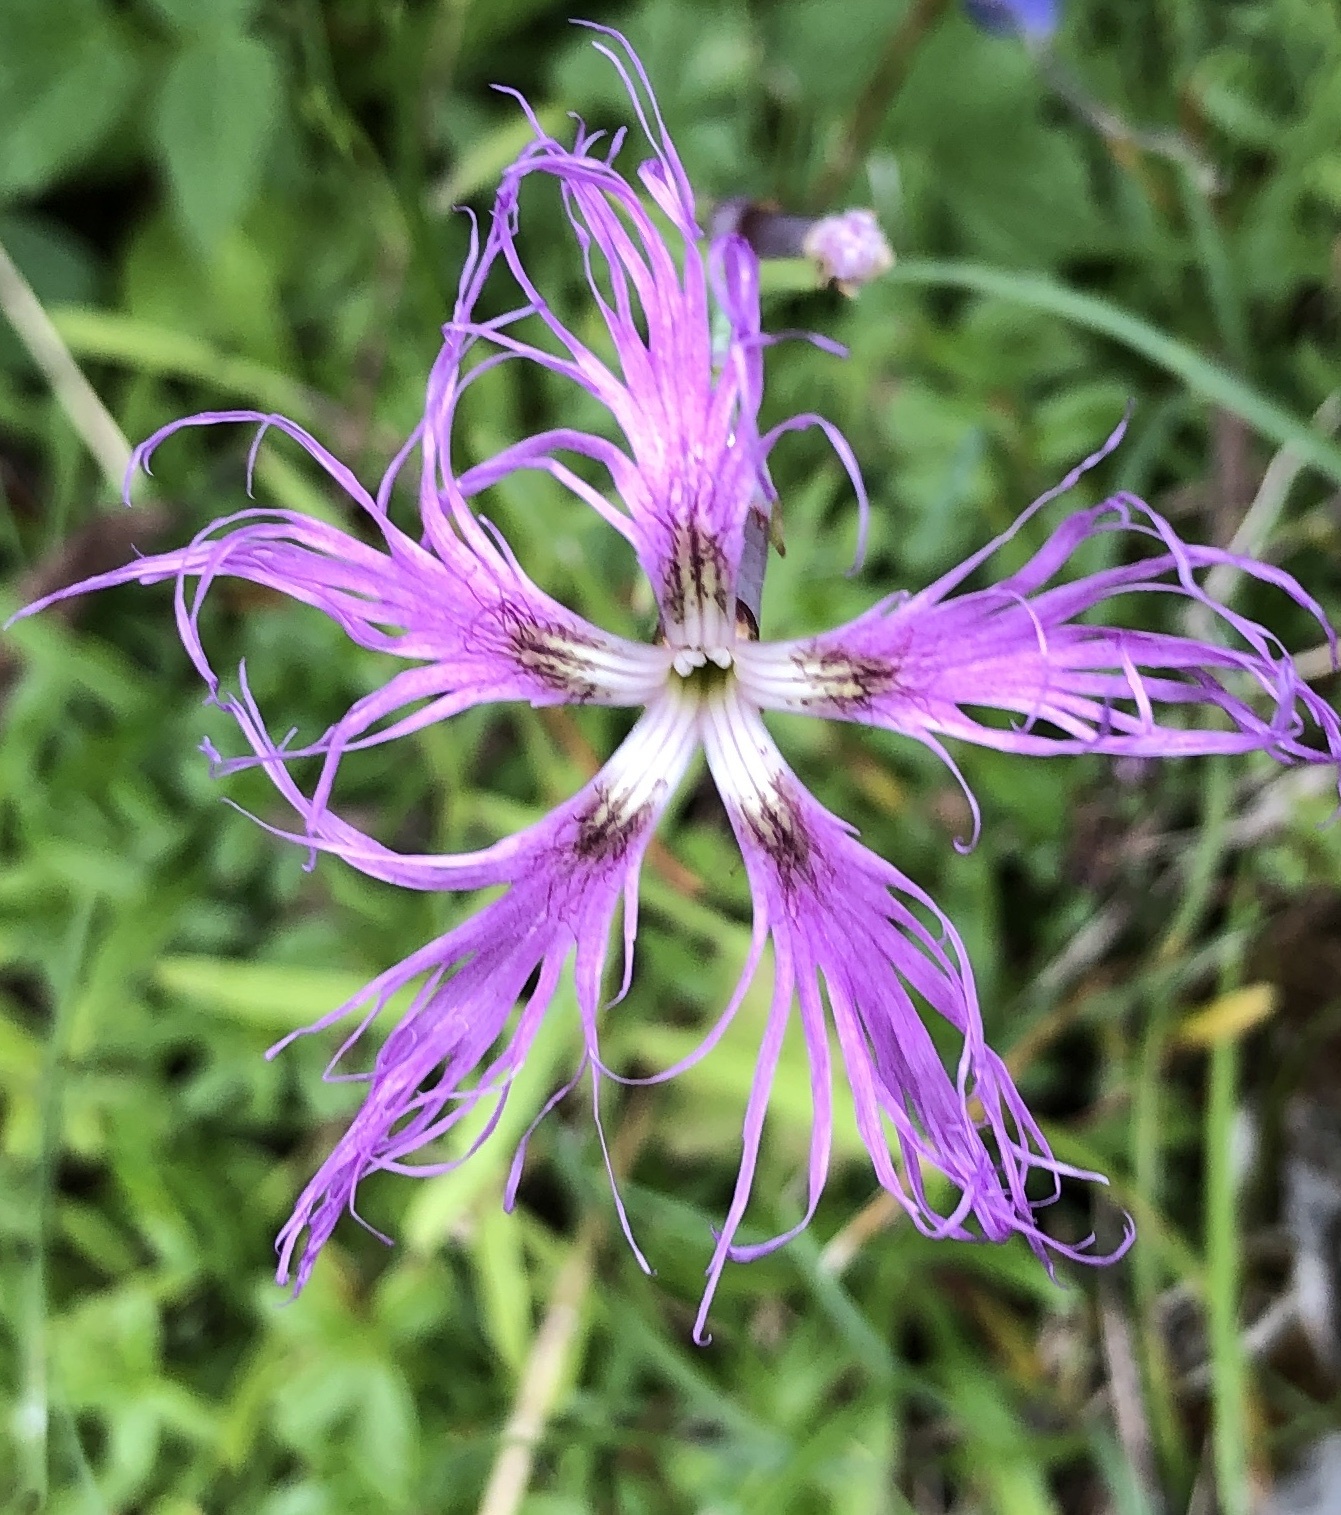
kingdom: Plantae
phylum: Tracheophyta
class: Magnoliopsida
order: Caryophyllales
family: Caryophyllaceae
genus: Dianthus
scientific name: Dianthus superbus
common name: Fringed pink
